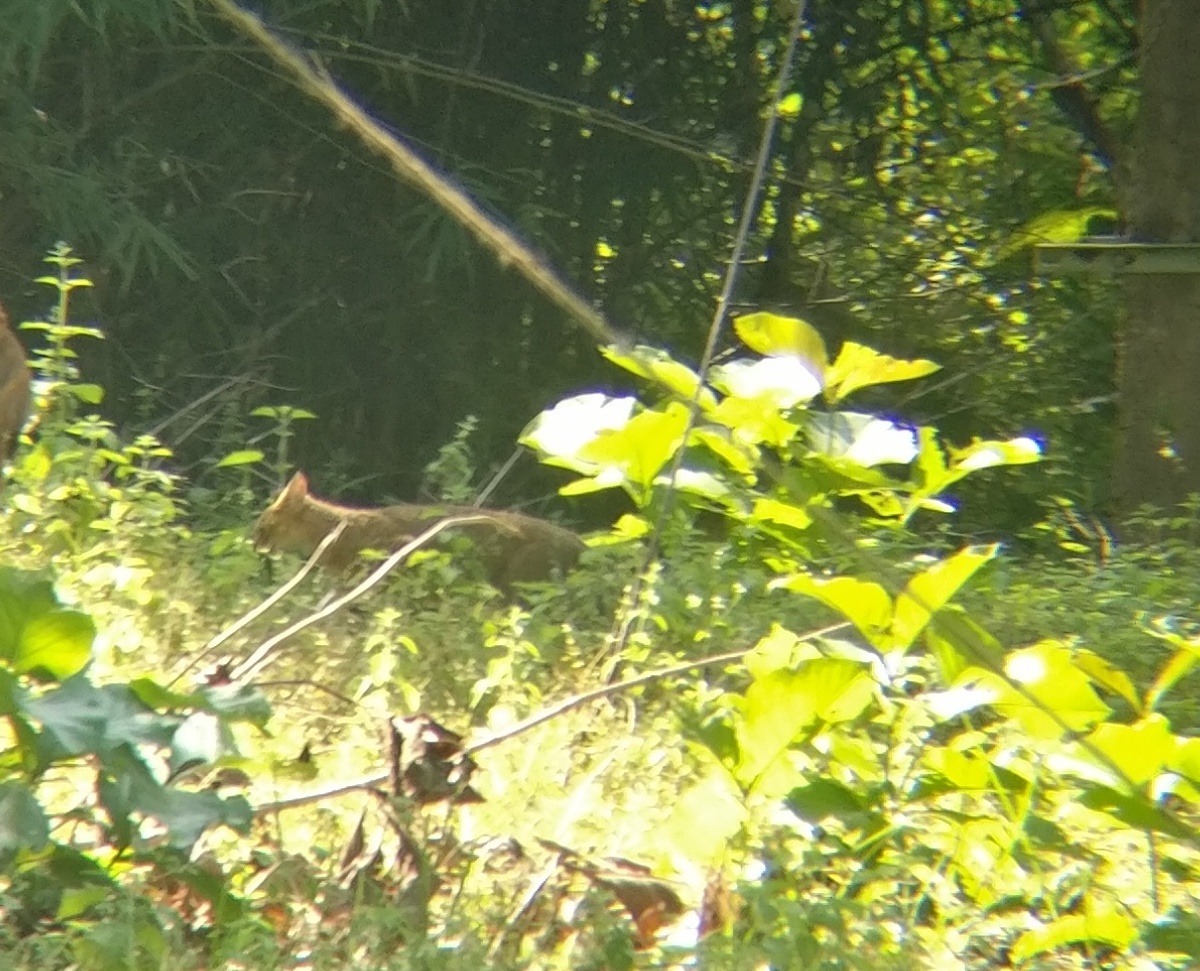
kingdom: Animalia
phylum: Chordata
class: Mammalia
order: Carnivora
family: Felidae
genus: Felis
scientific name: Felis chaus
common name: Jungle cat
